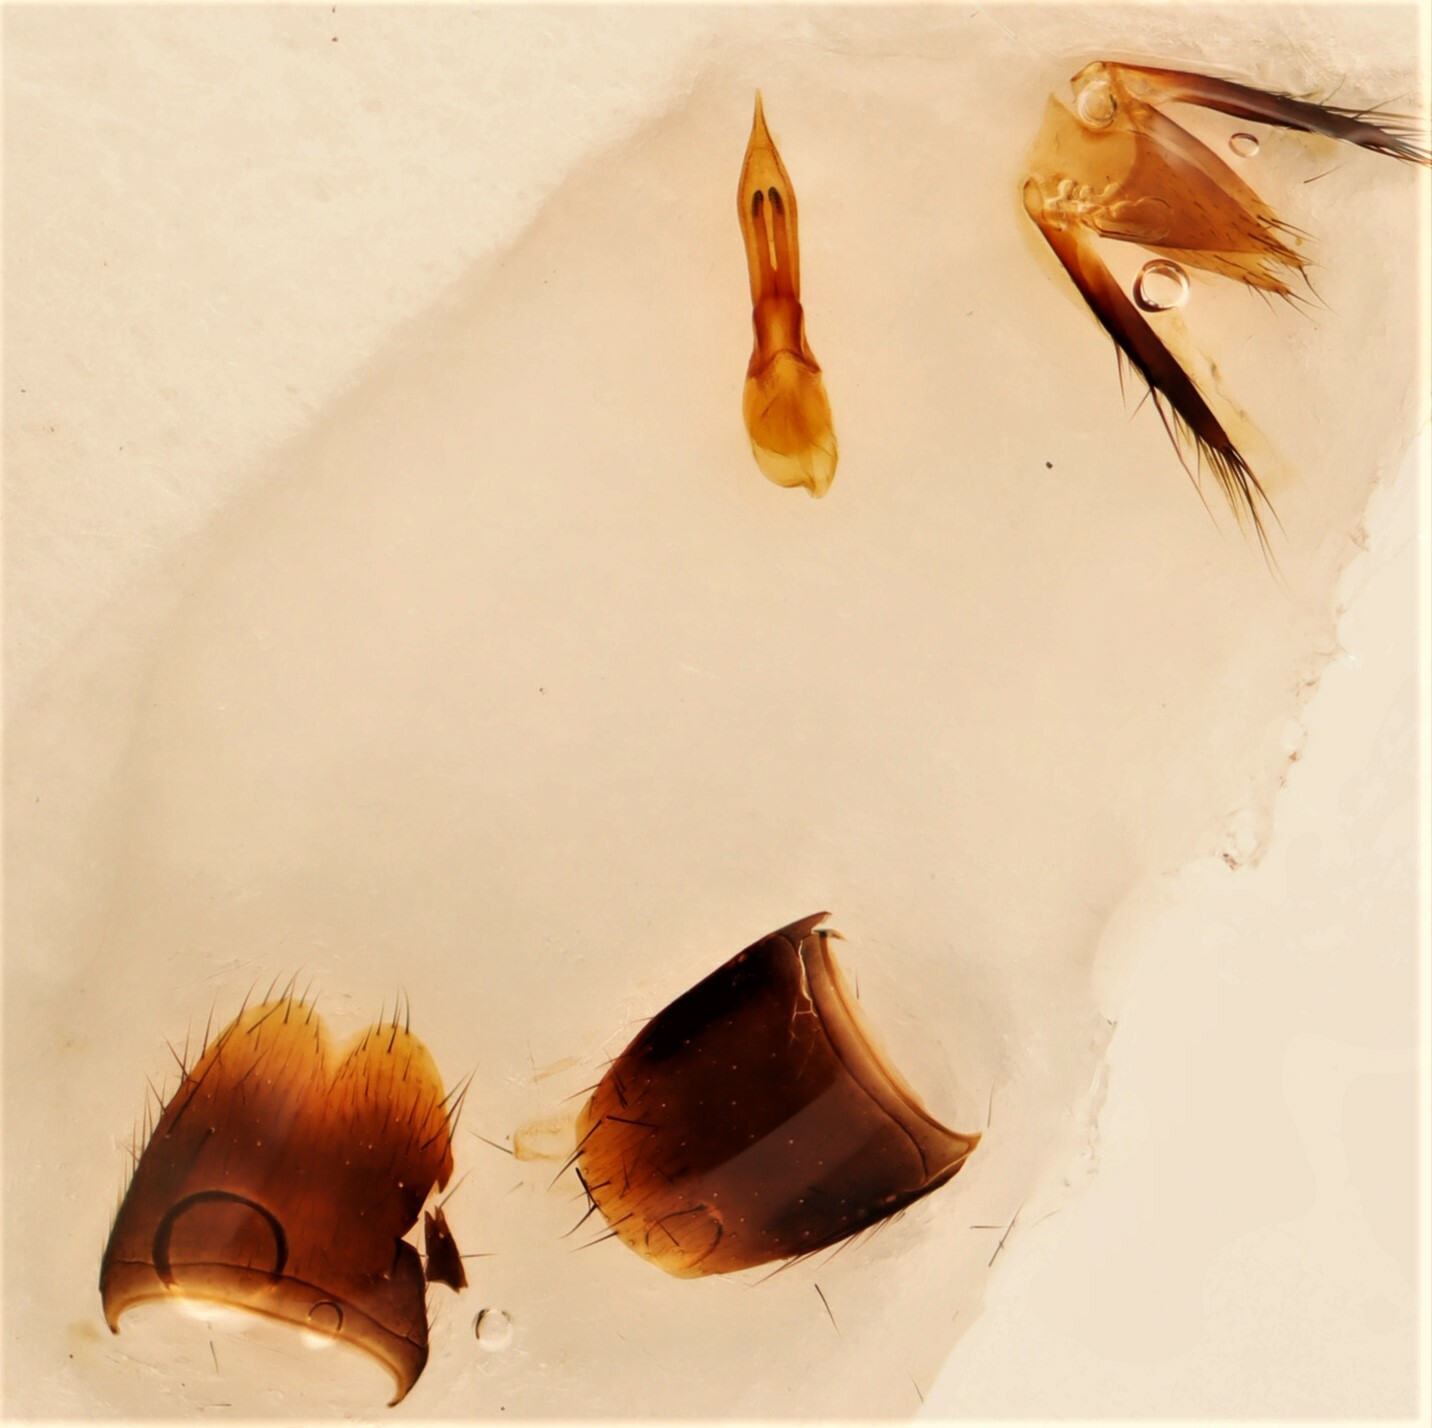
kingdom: Animalia
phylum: Arthropoda
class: Insecta
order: Coleoptera
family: Staphylinidae
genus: Philonthus
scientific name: Philonthus sessor
